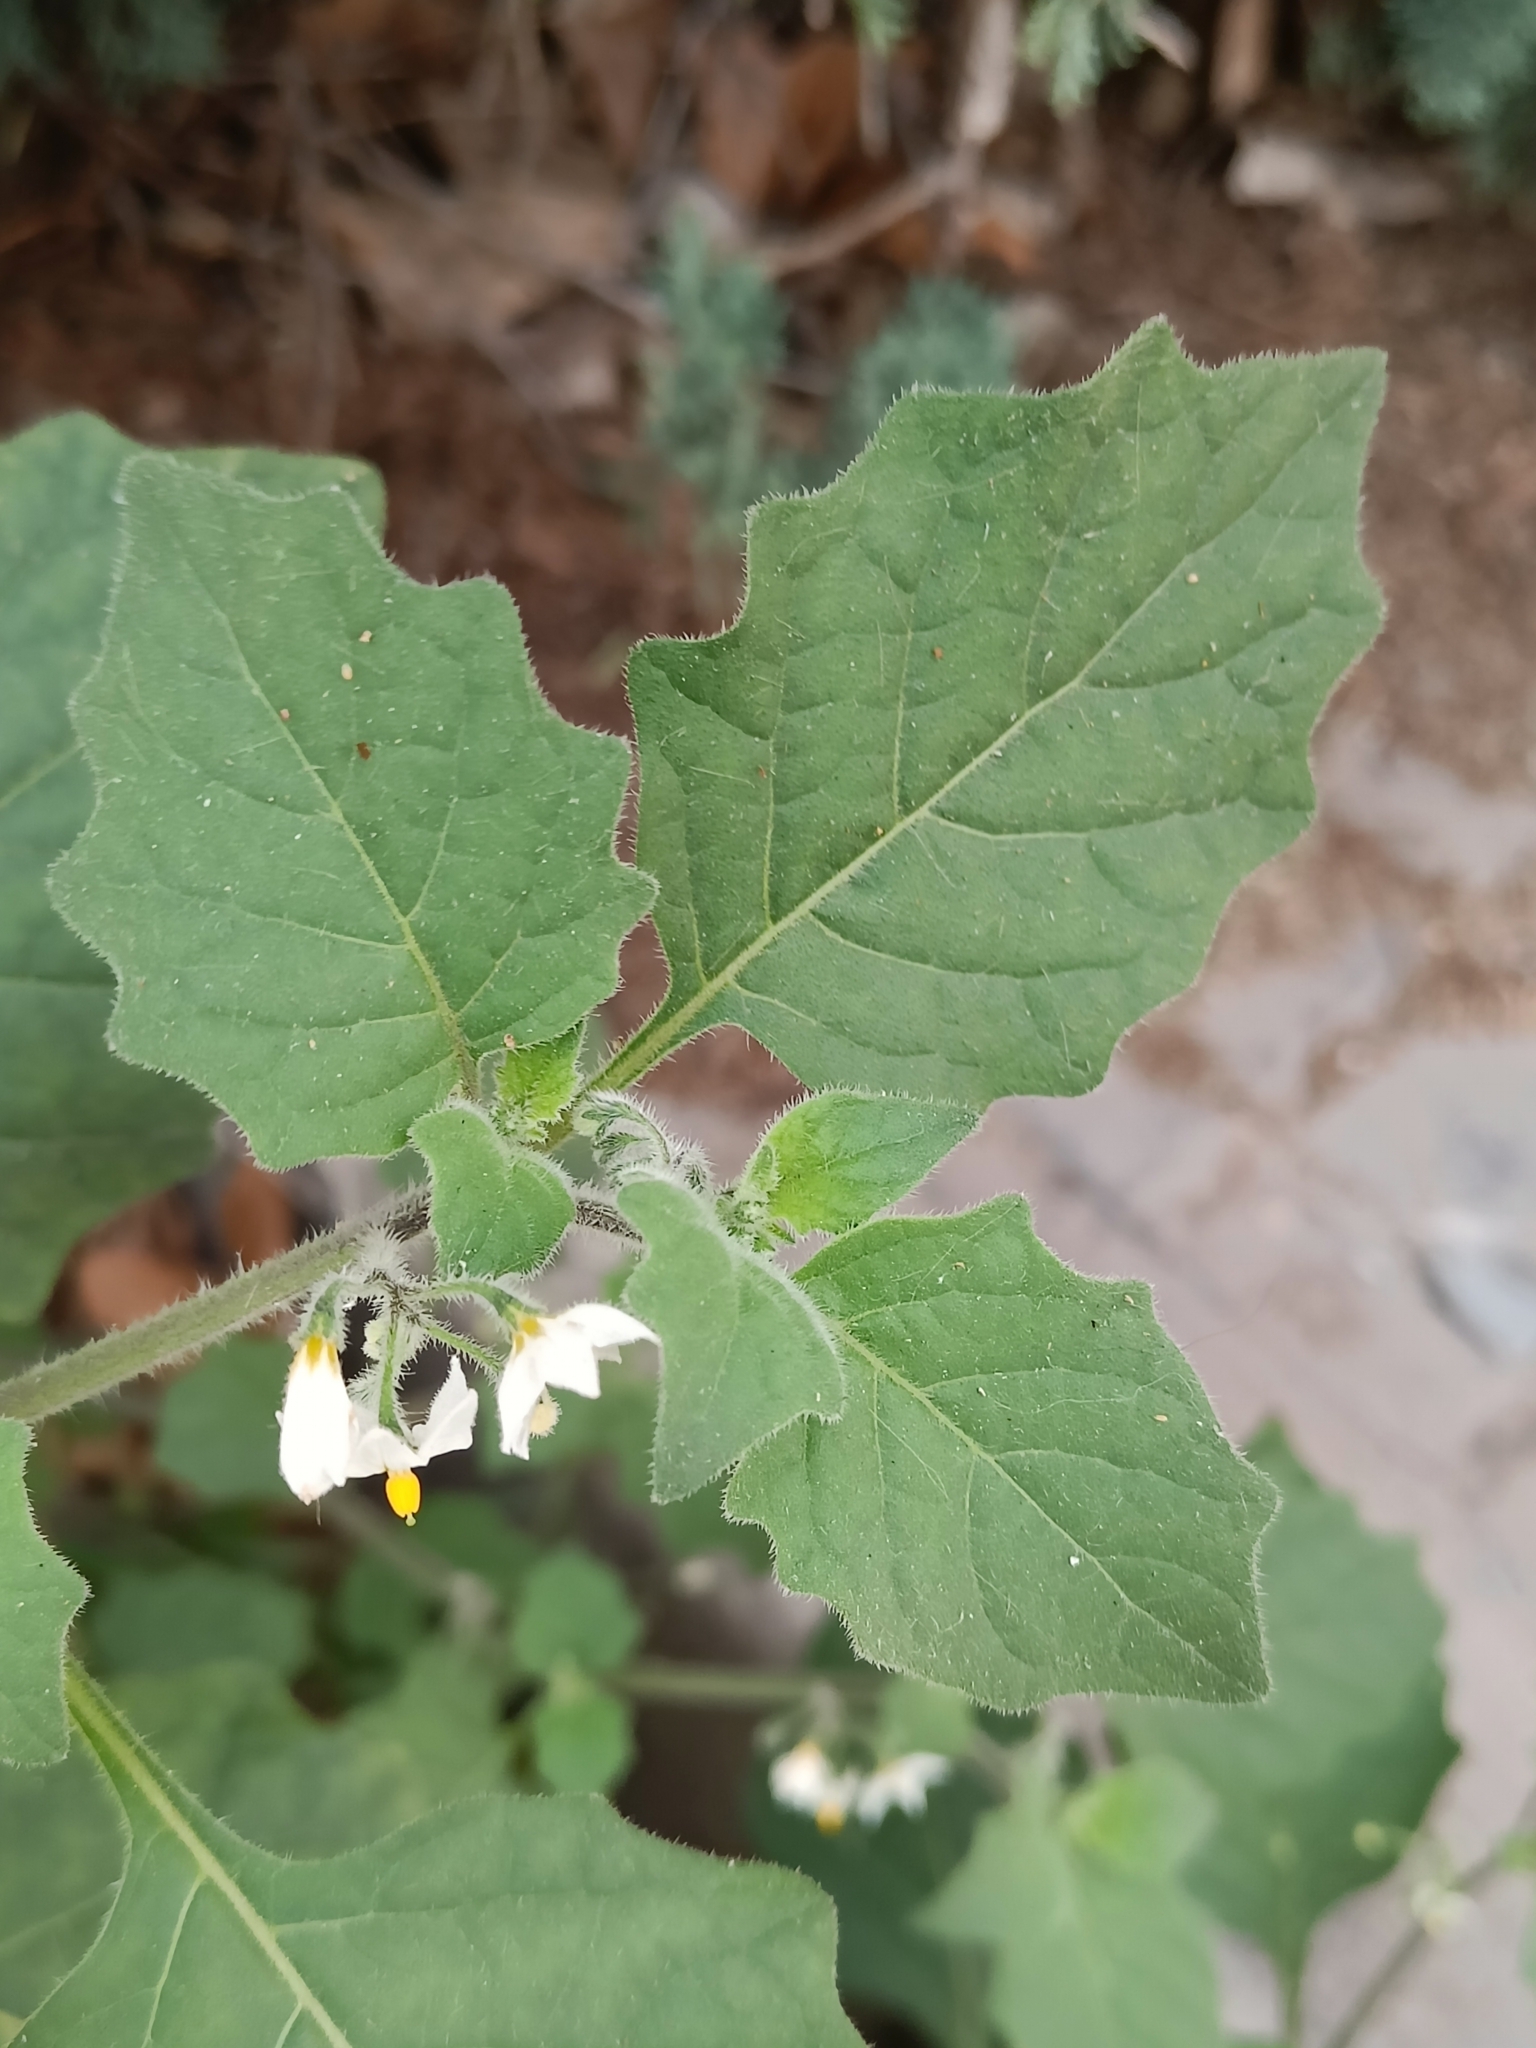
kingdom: Plantae
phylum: Tracheophyta
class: Magnoliopsida
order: Solanales
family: Solanaceae
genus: Solanum
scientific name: Solanum villosum
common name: Red nightshade
